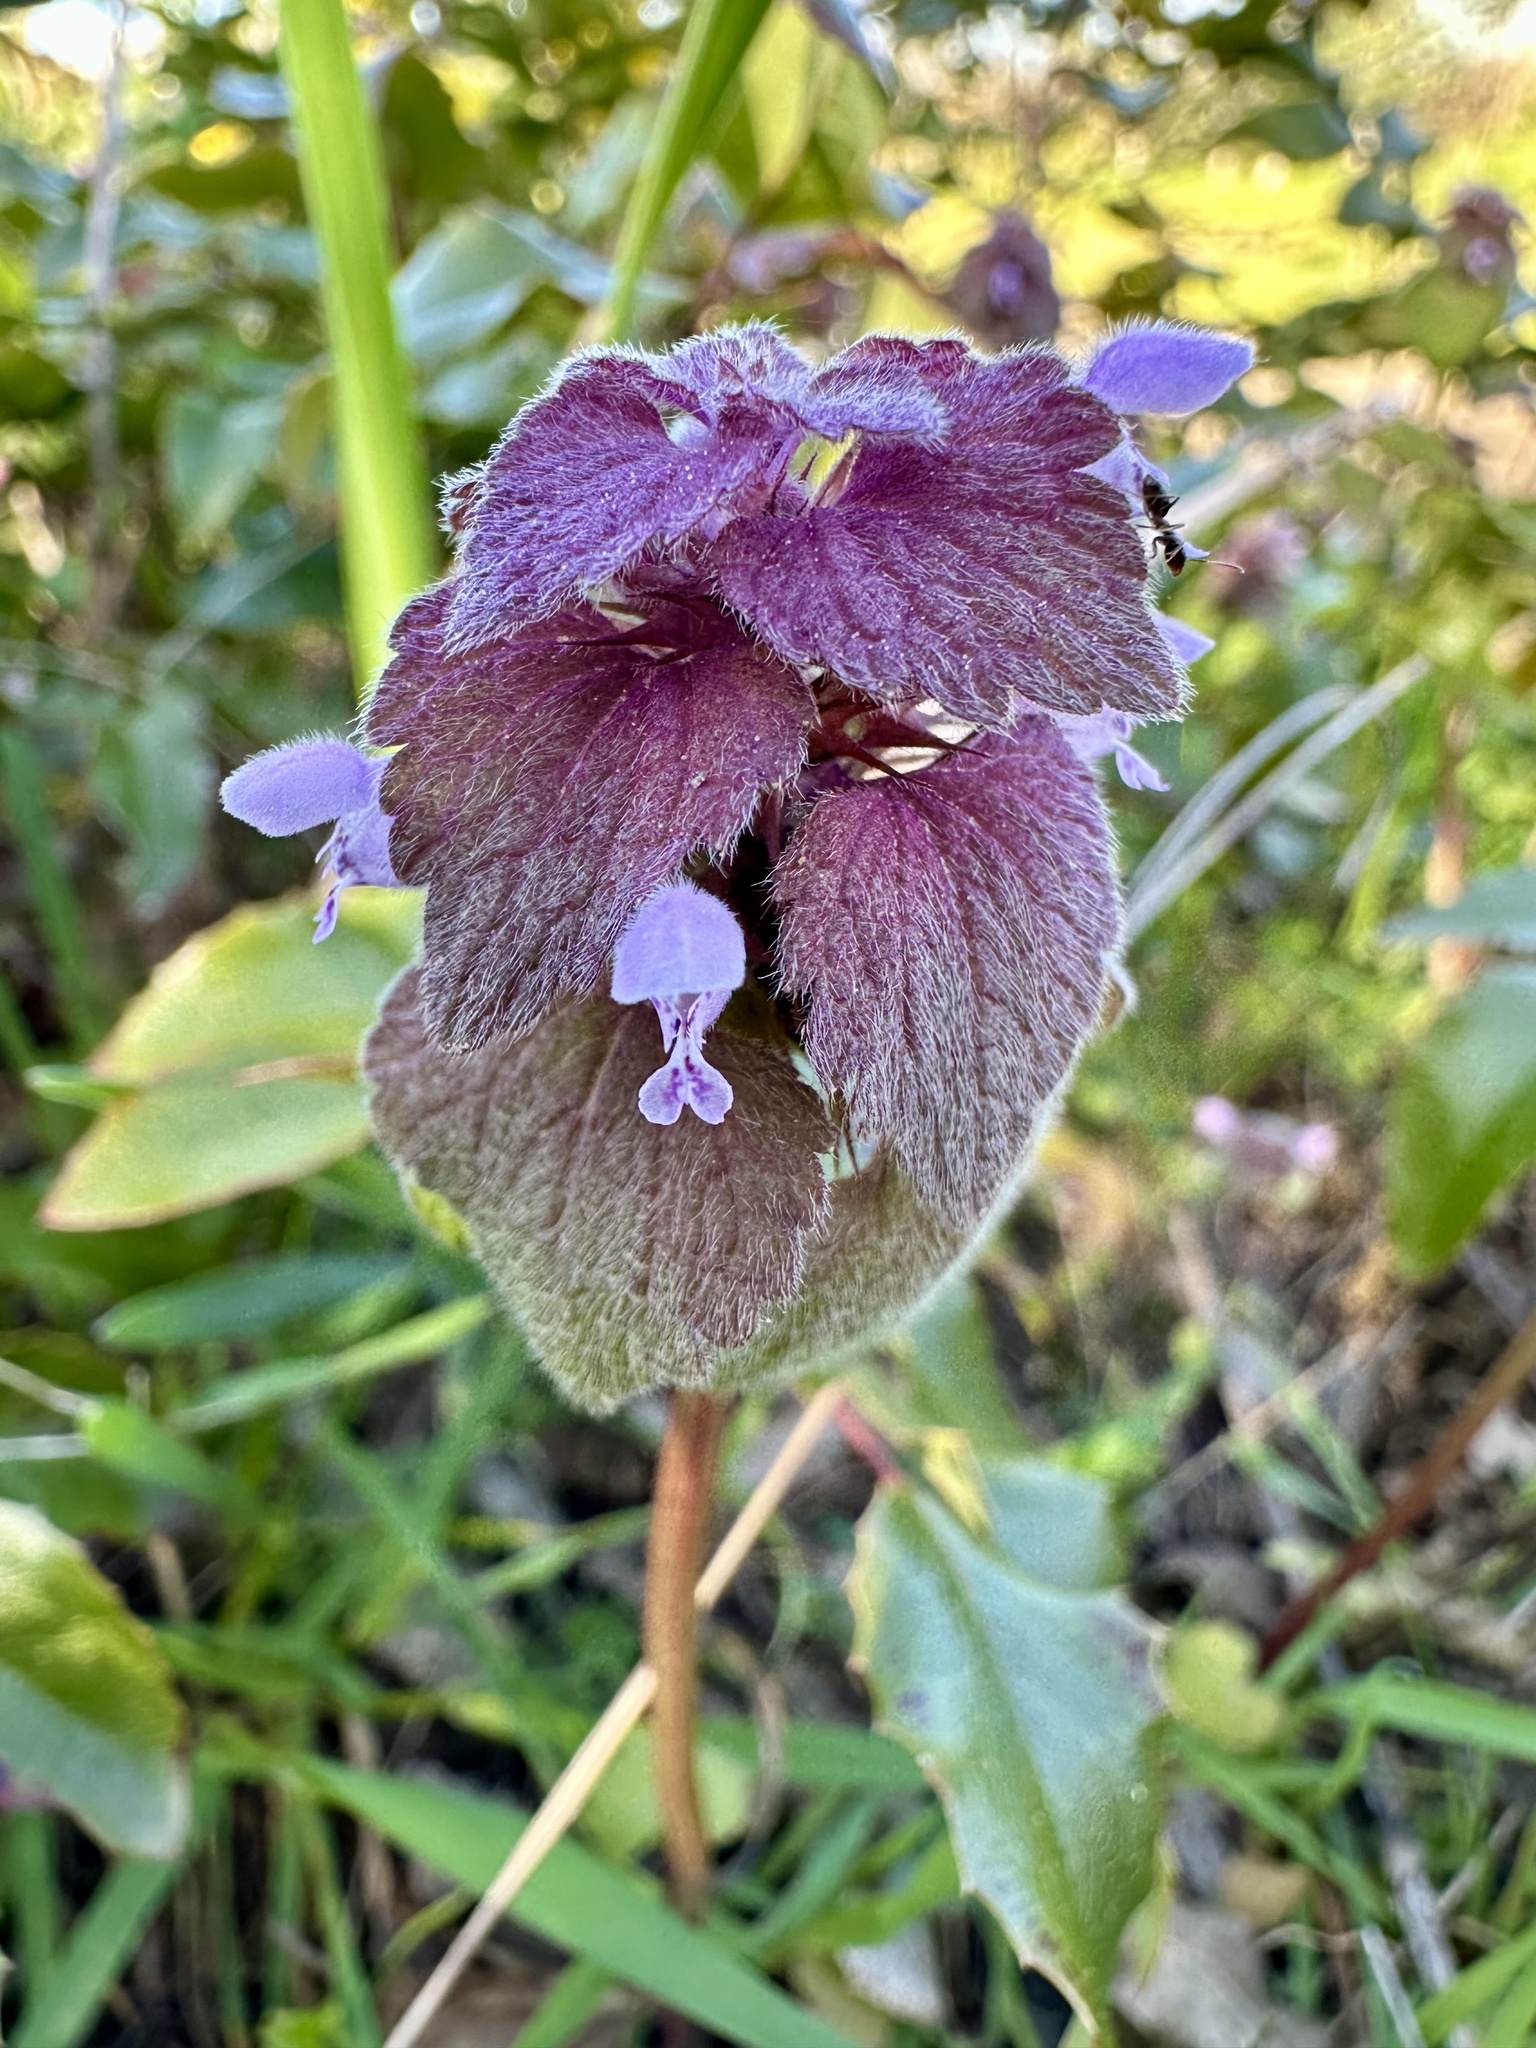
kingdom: Plantae
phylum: Tracheophyta
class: Magnoliopsida
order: Lamiales
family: Lamiaceae
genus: Lamium
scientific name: Lamium purpureum
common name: Red dead-nettle
